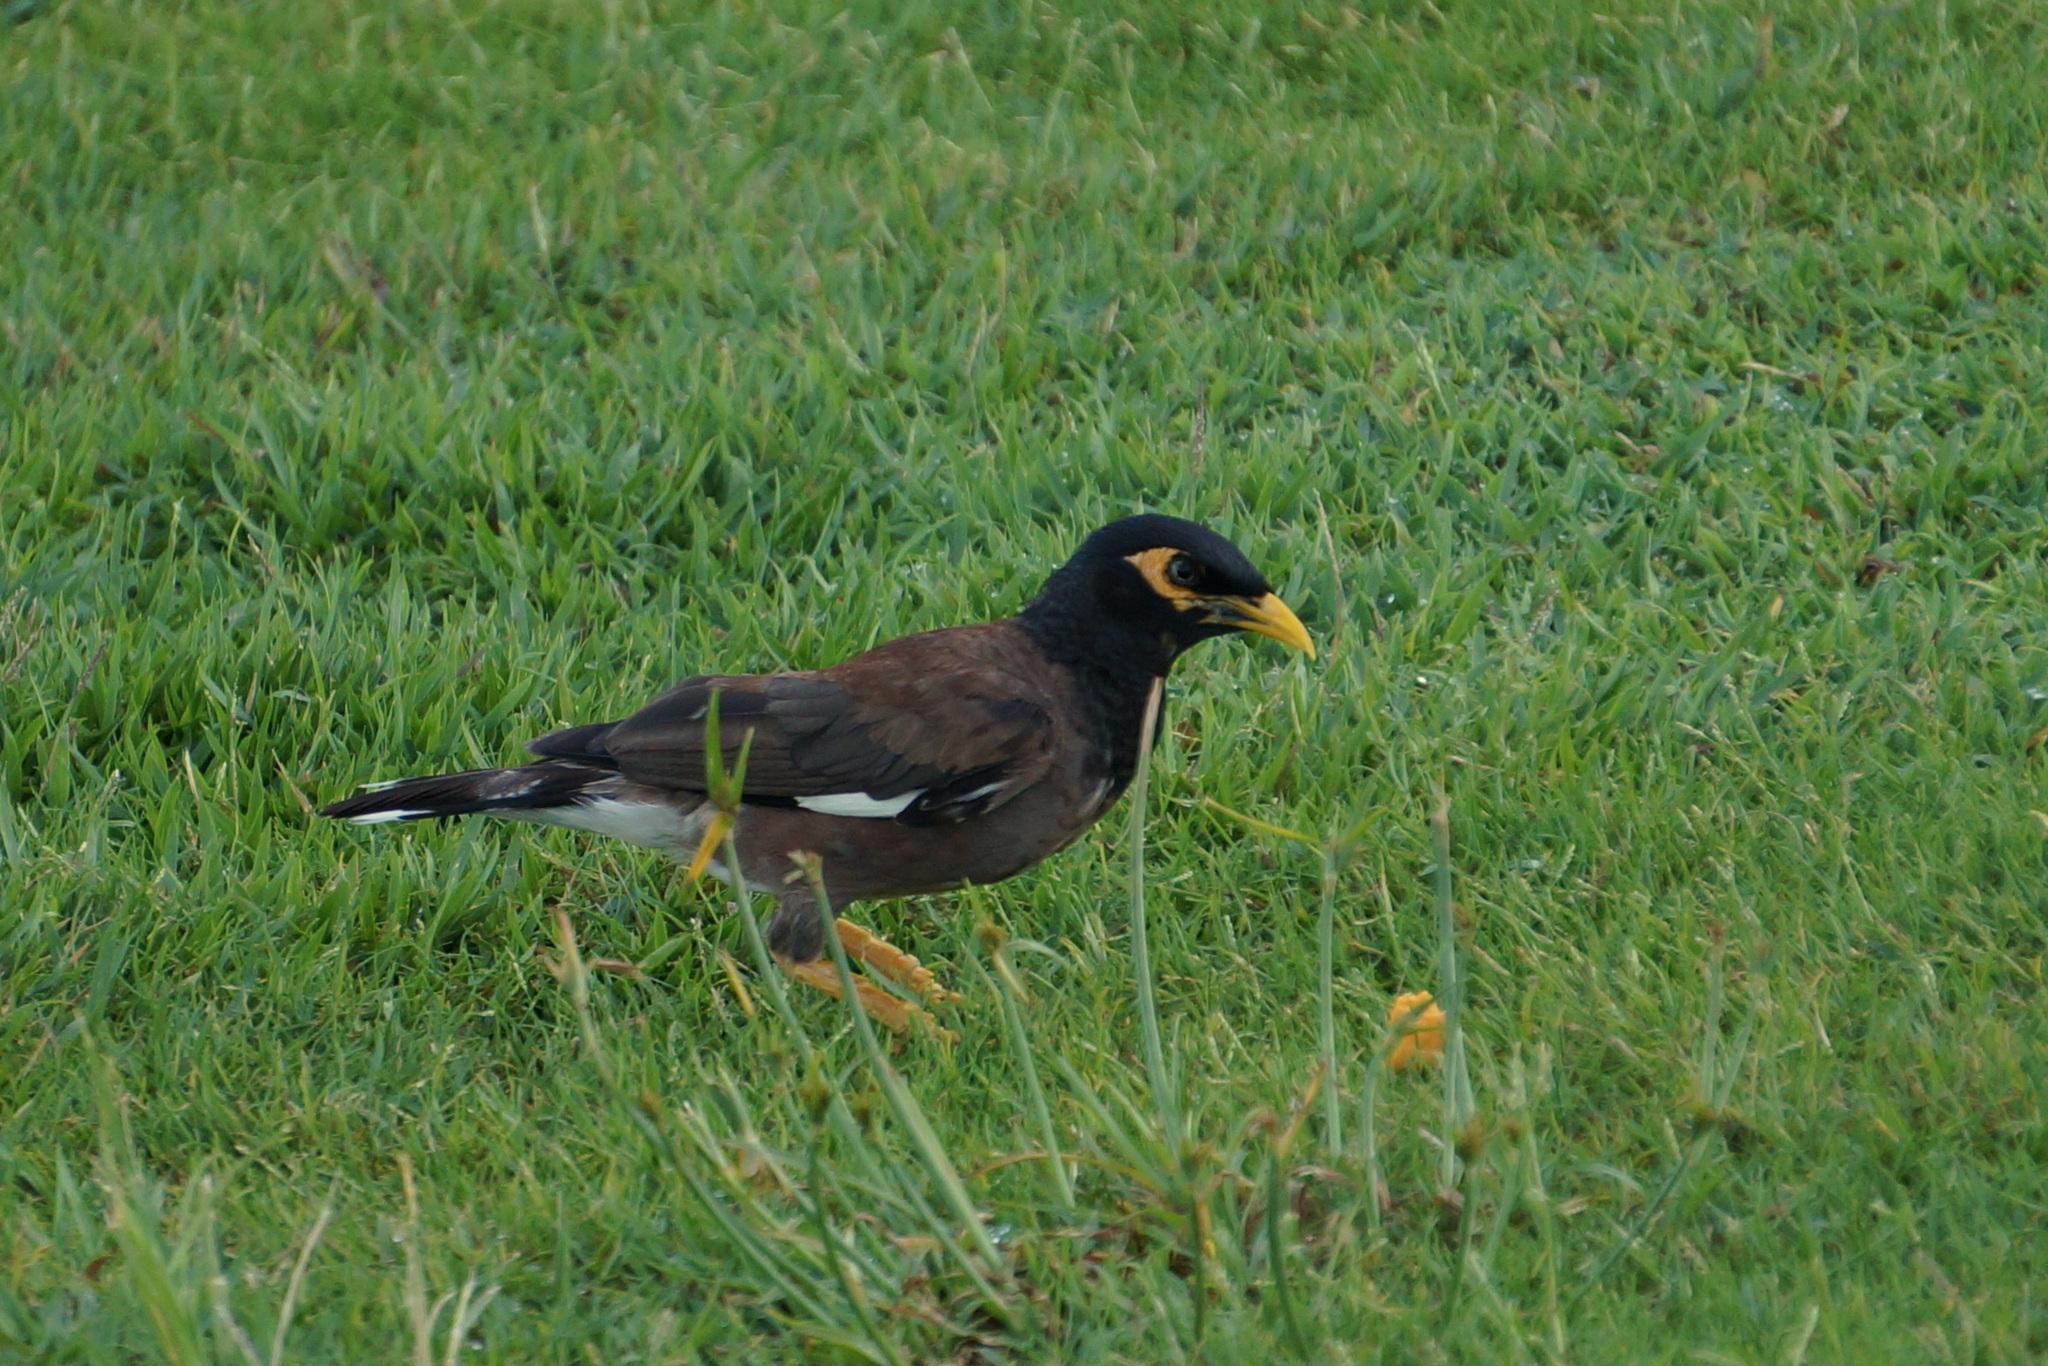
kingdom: Animalia
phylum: Chordata
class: Aves
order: Passeriformes
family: Sturnidae
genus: Acridotheres
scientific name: Acridotheres tristis
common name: Common myna
